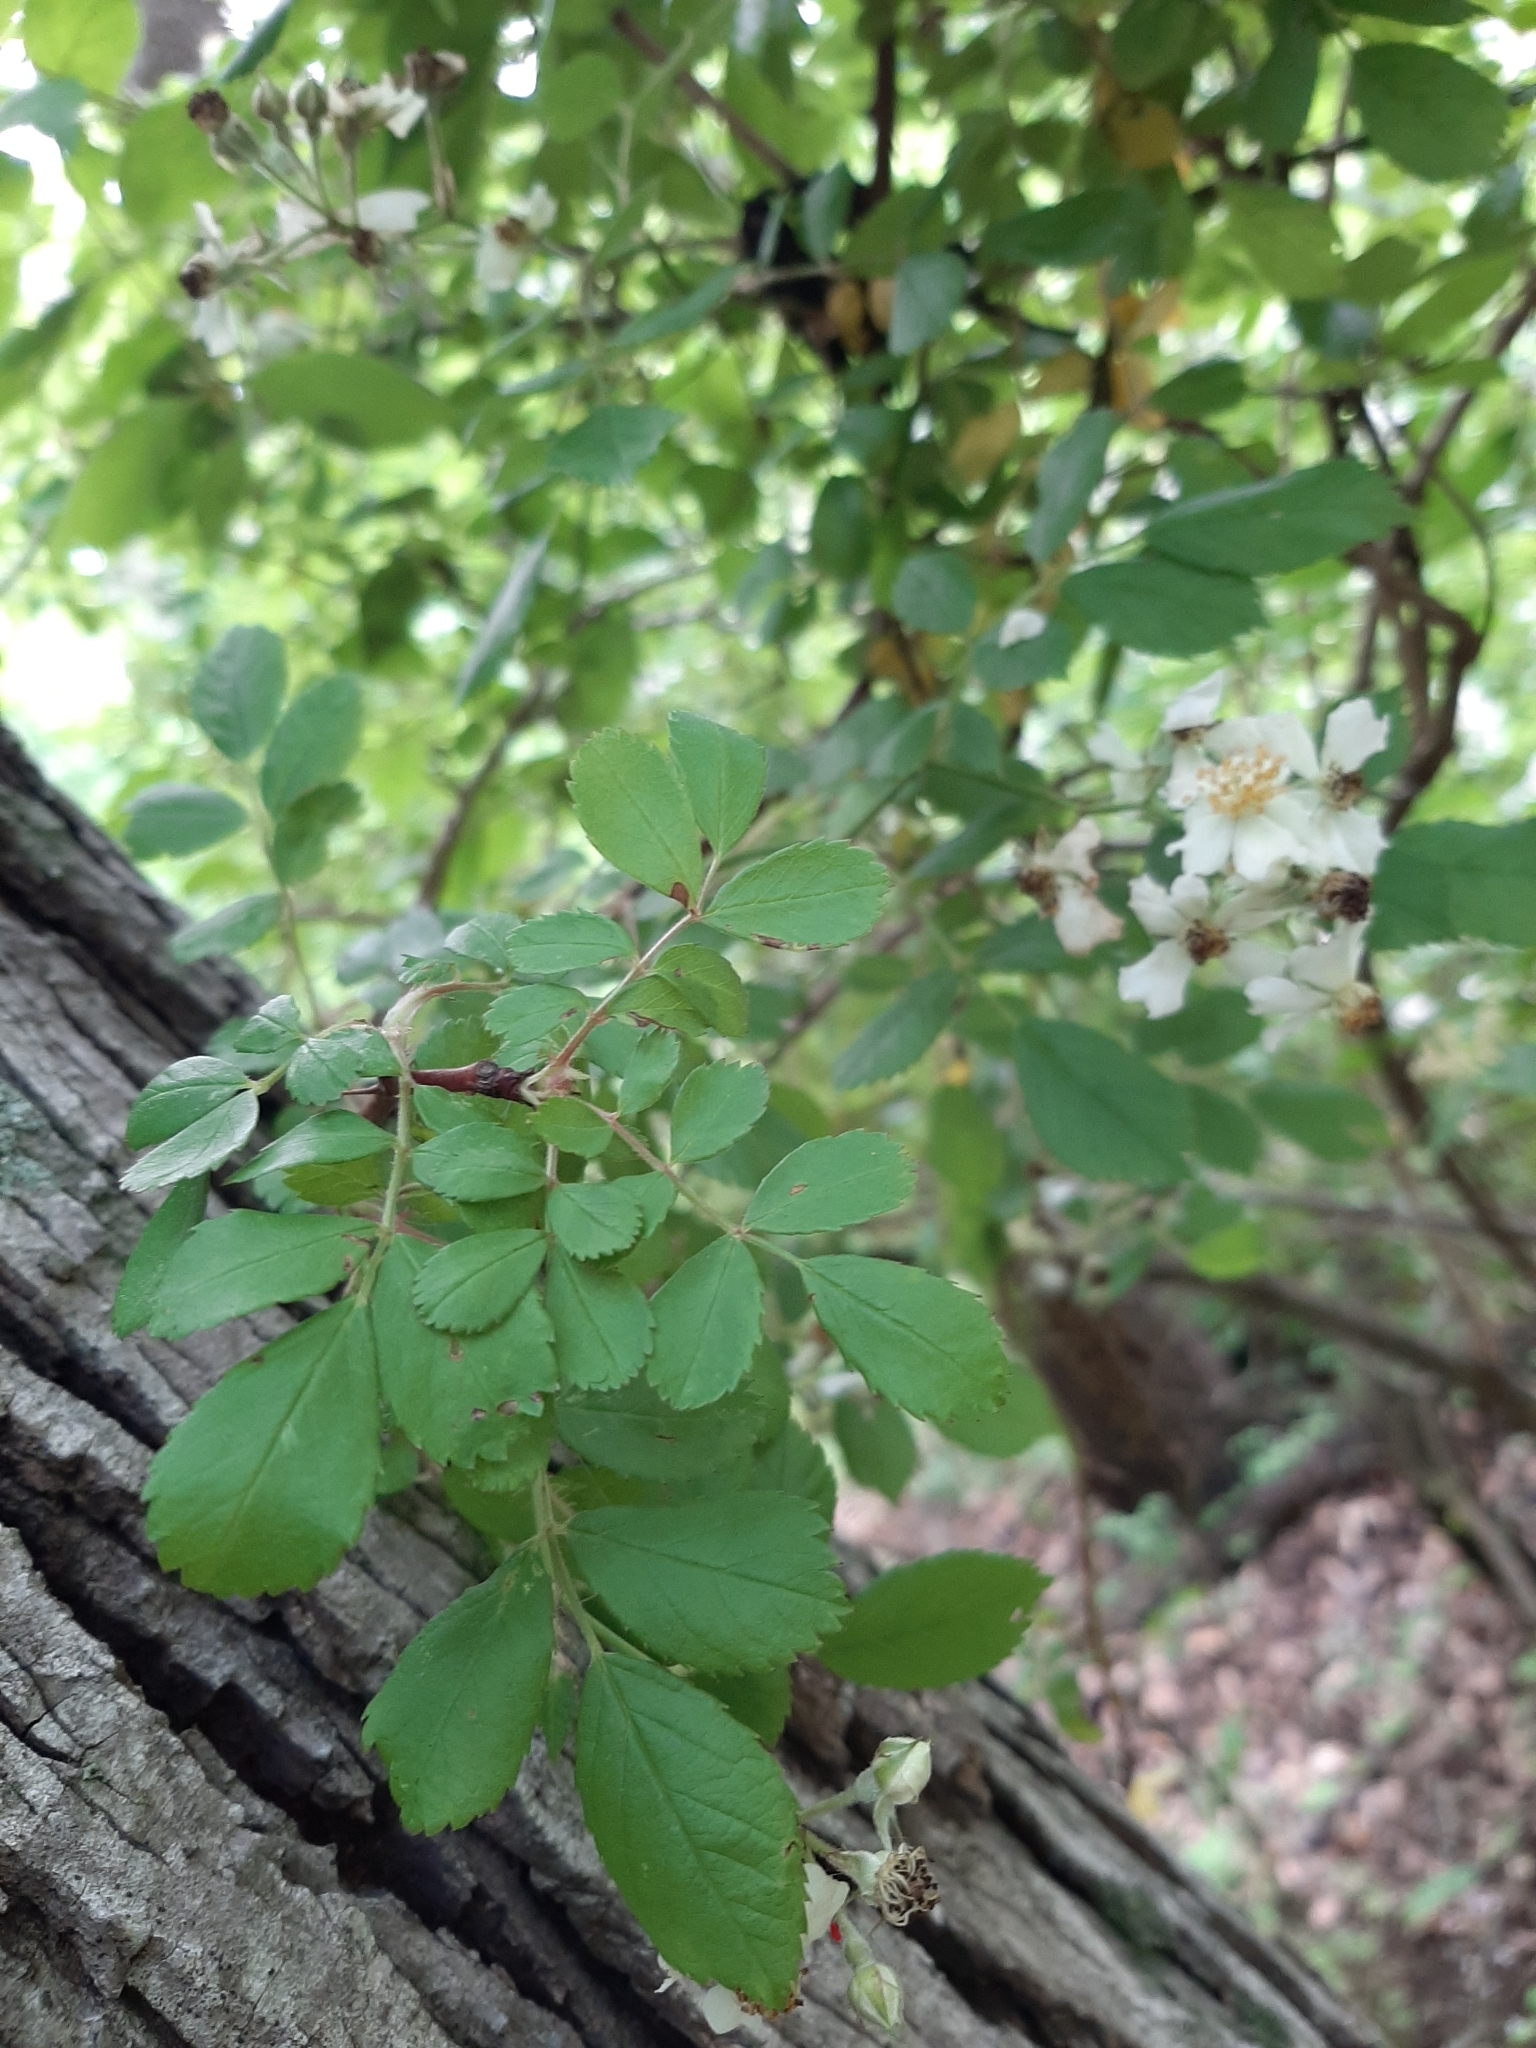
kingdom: Plantae
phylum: Tracheophyta
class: Magnoliopsida
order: Rosales
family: Rosaceae
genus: Rosa
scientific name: Rosa multiflora
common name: Multiflora rose
